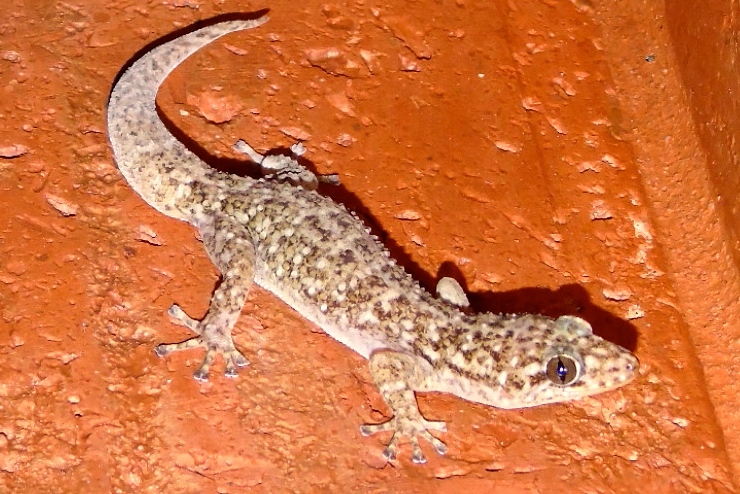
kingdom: Animalia
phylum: Chordata
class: Squamata
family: Phyllodactylidae
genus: Phyllodactylus
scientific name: Phyllodactylus
